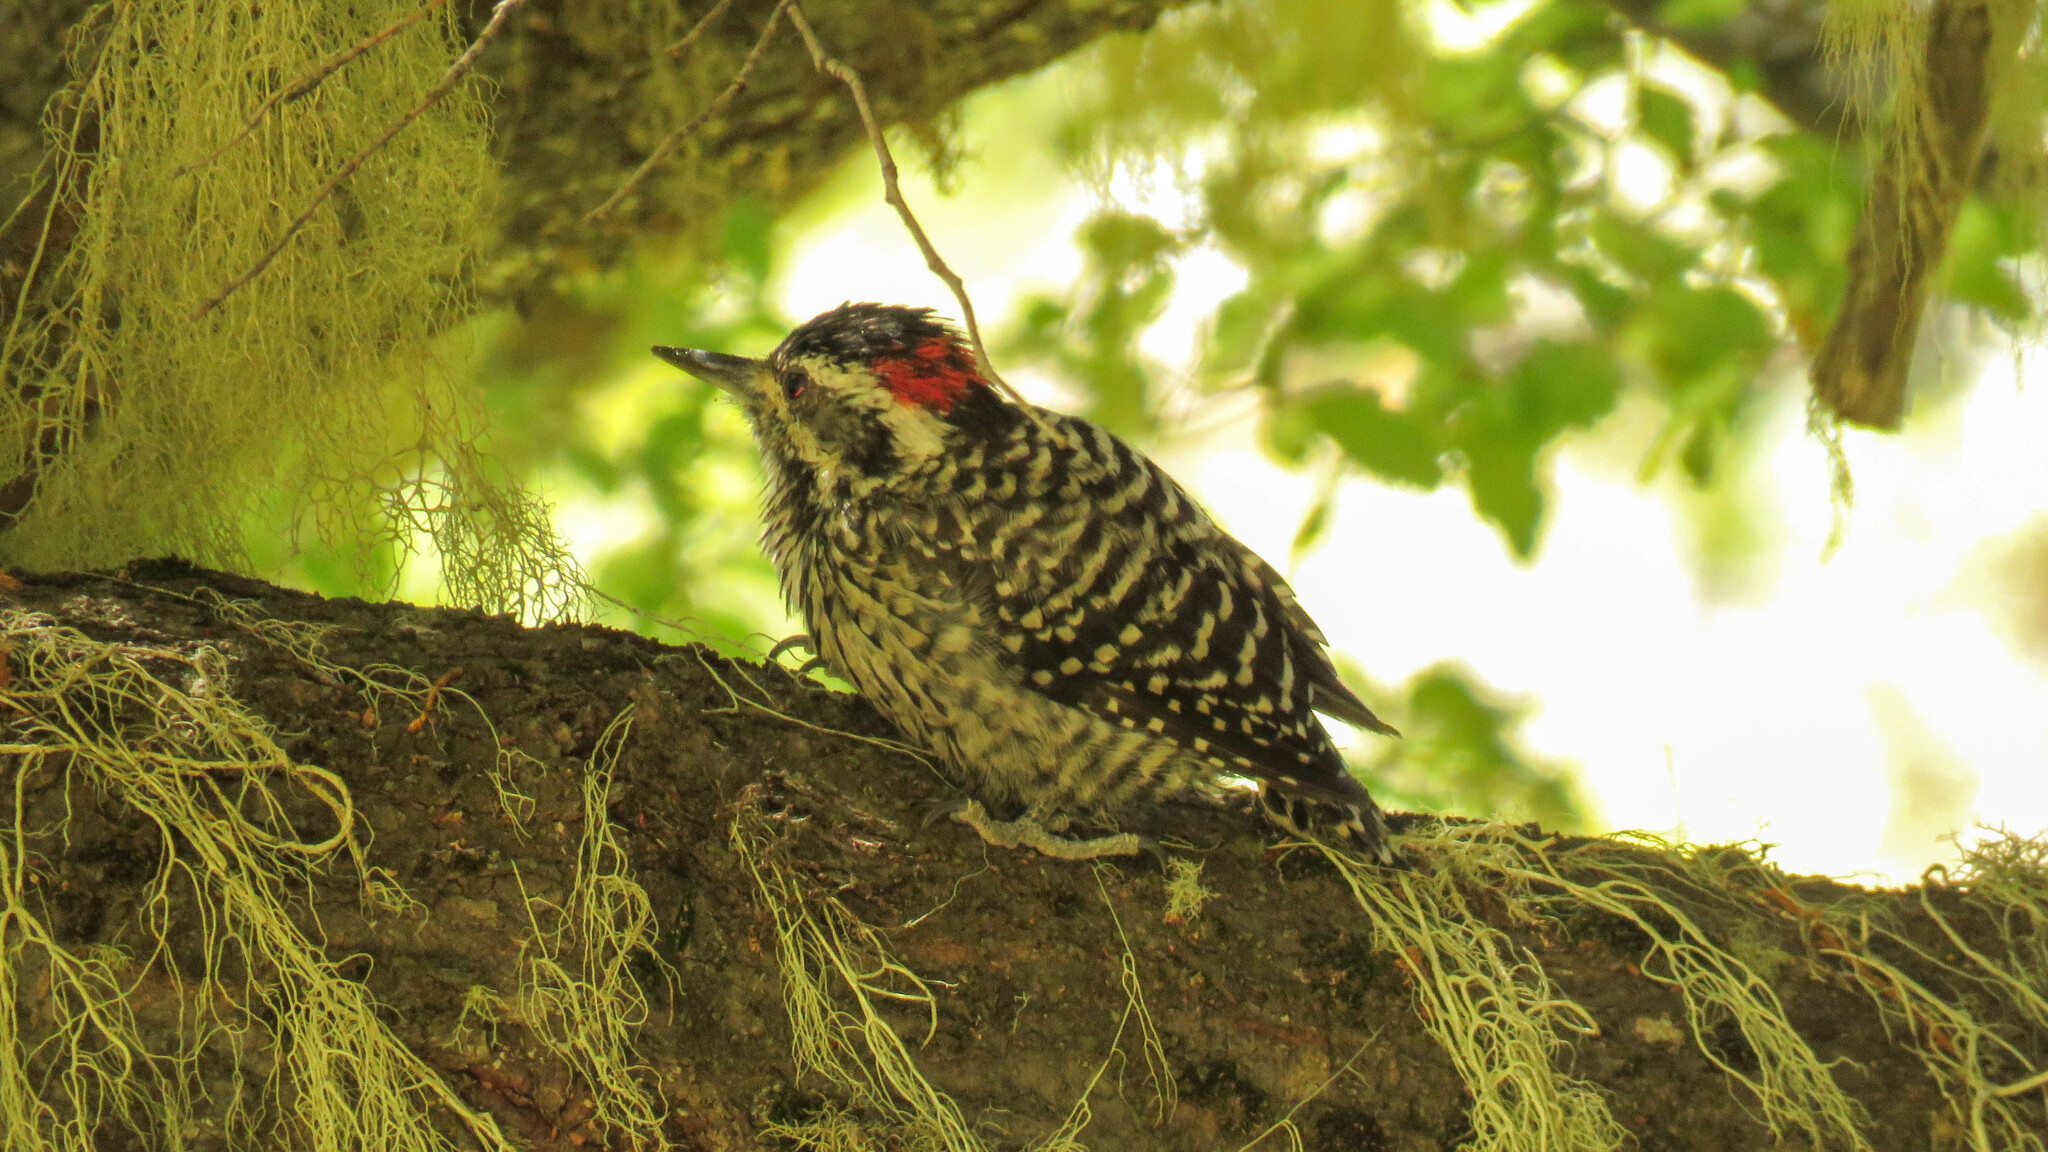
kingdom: Animalia
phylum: Chordata
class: Aves
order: Piciformes
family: Picidae
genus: Veniliornis
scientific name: Veniliornis lignarius
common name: Striped woodpecker
